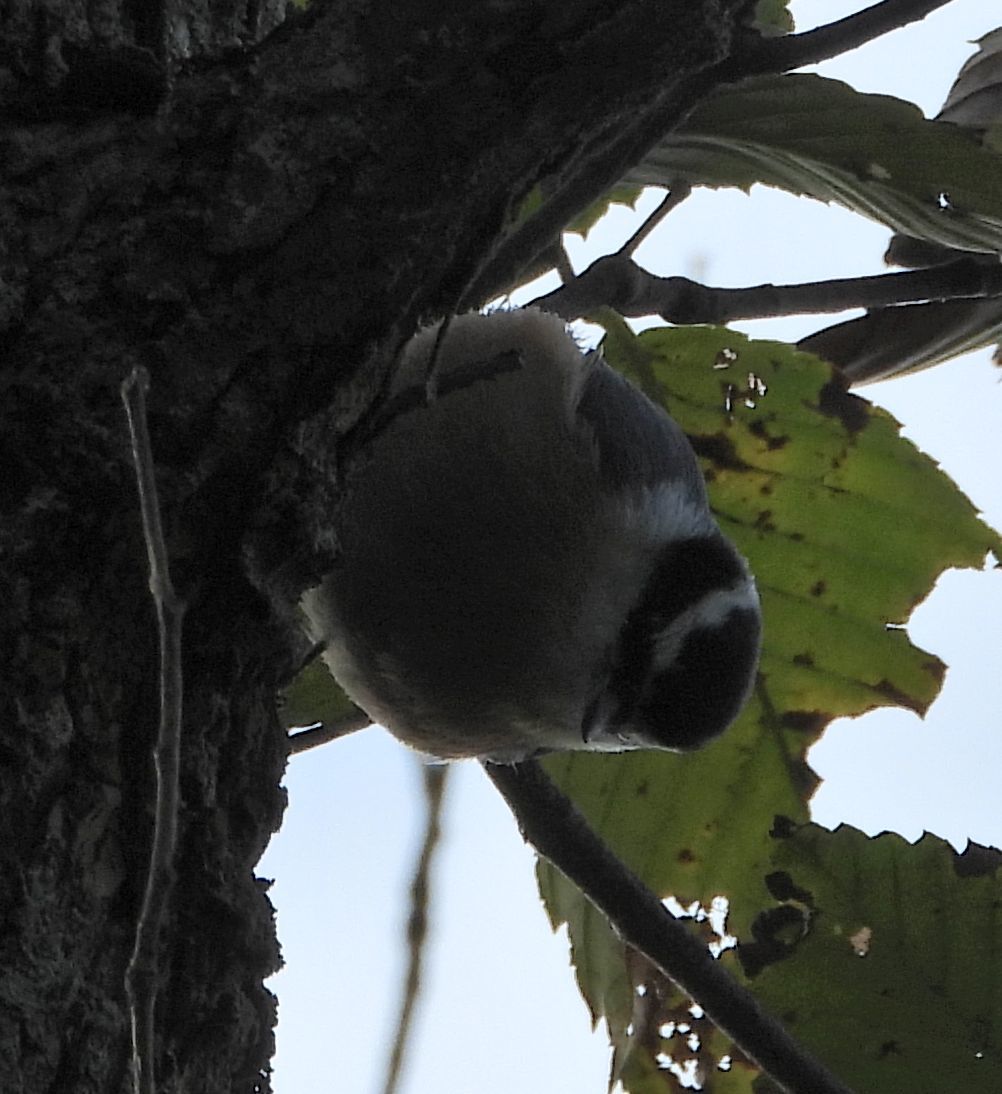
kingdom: Animalia
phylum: Chordata
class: Aves
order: Passeriformes
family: Sittidae
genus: Sitta
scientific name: Sitta canadensis
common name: Red-breasted nuthatch
